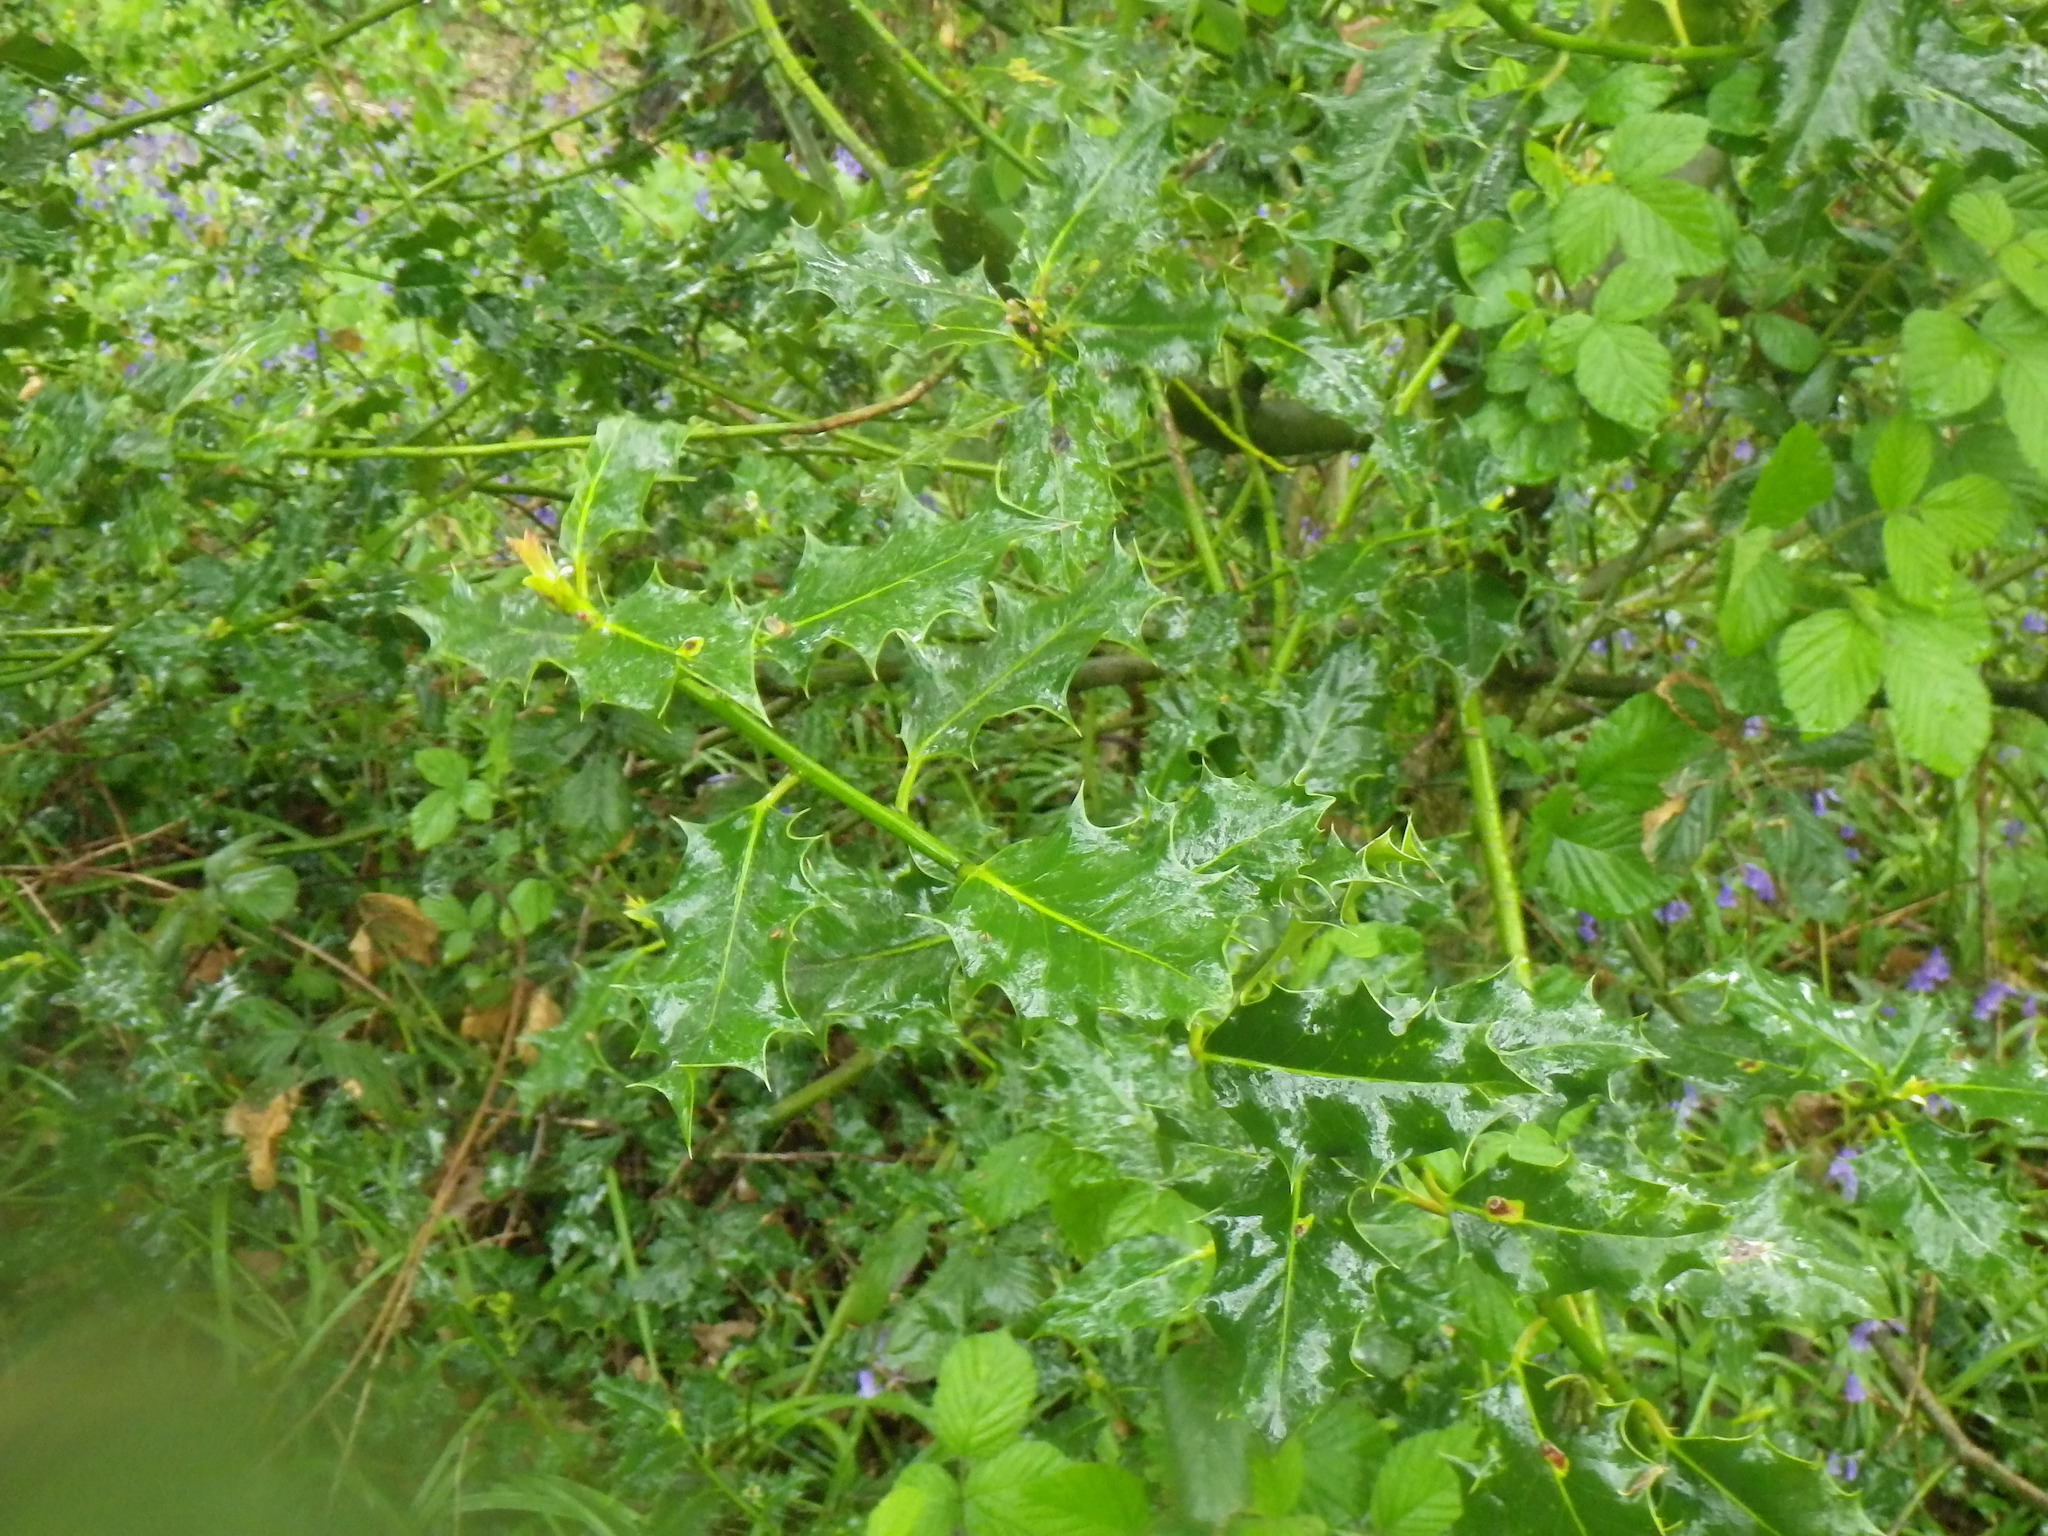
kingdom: Plantae
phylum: Tracheophyta
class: Magnoliopsida
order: Aquifoliales
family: Aquifoliaceae
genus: Ilex
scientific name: Ilex aquifolium
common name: English holly
